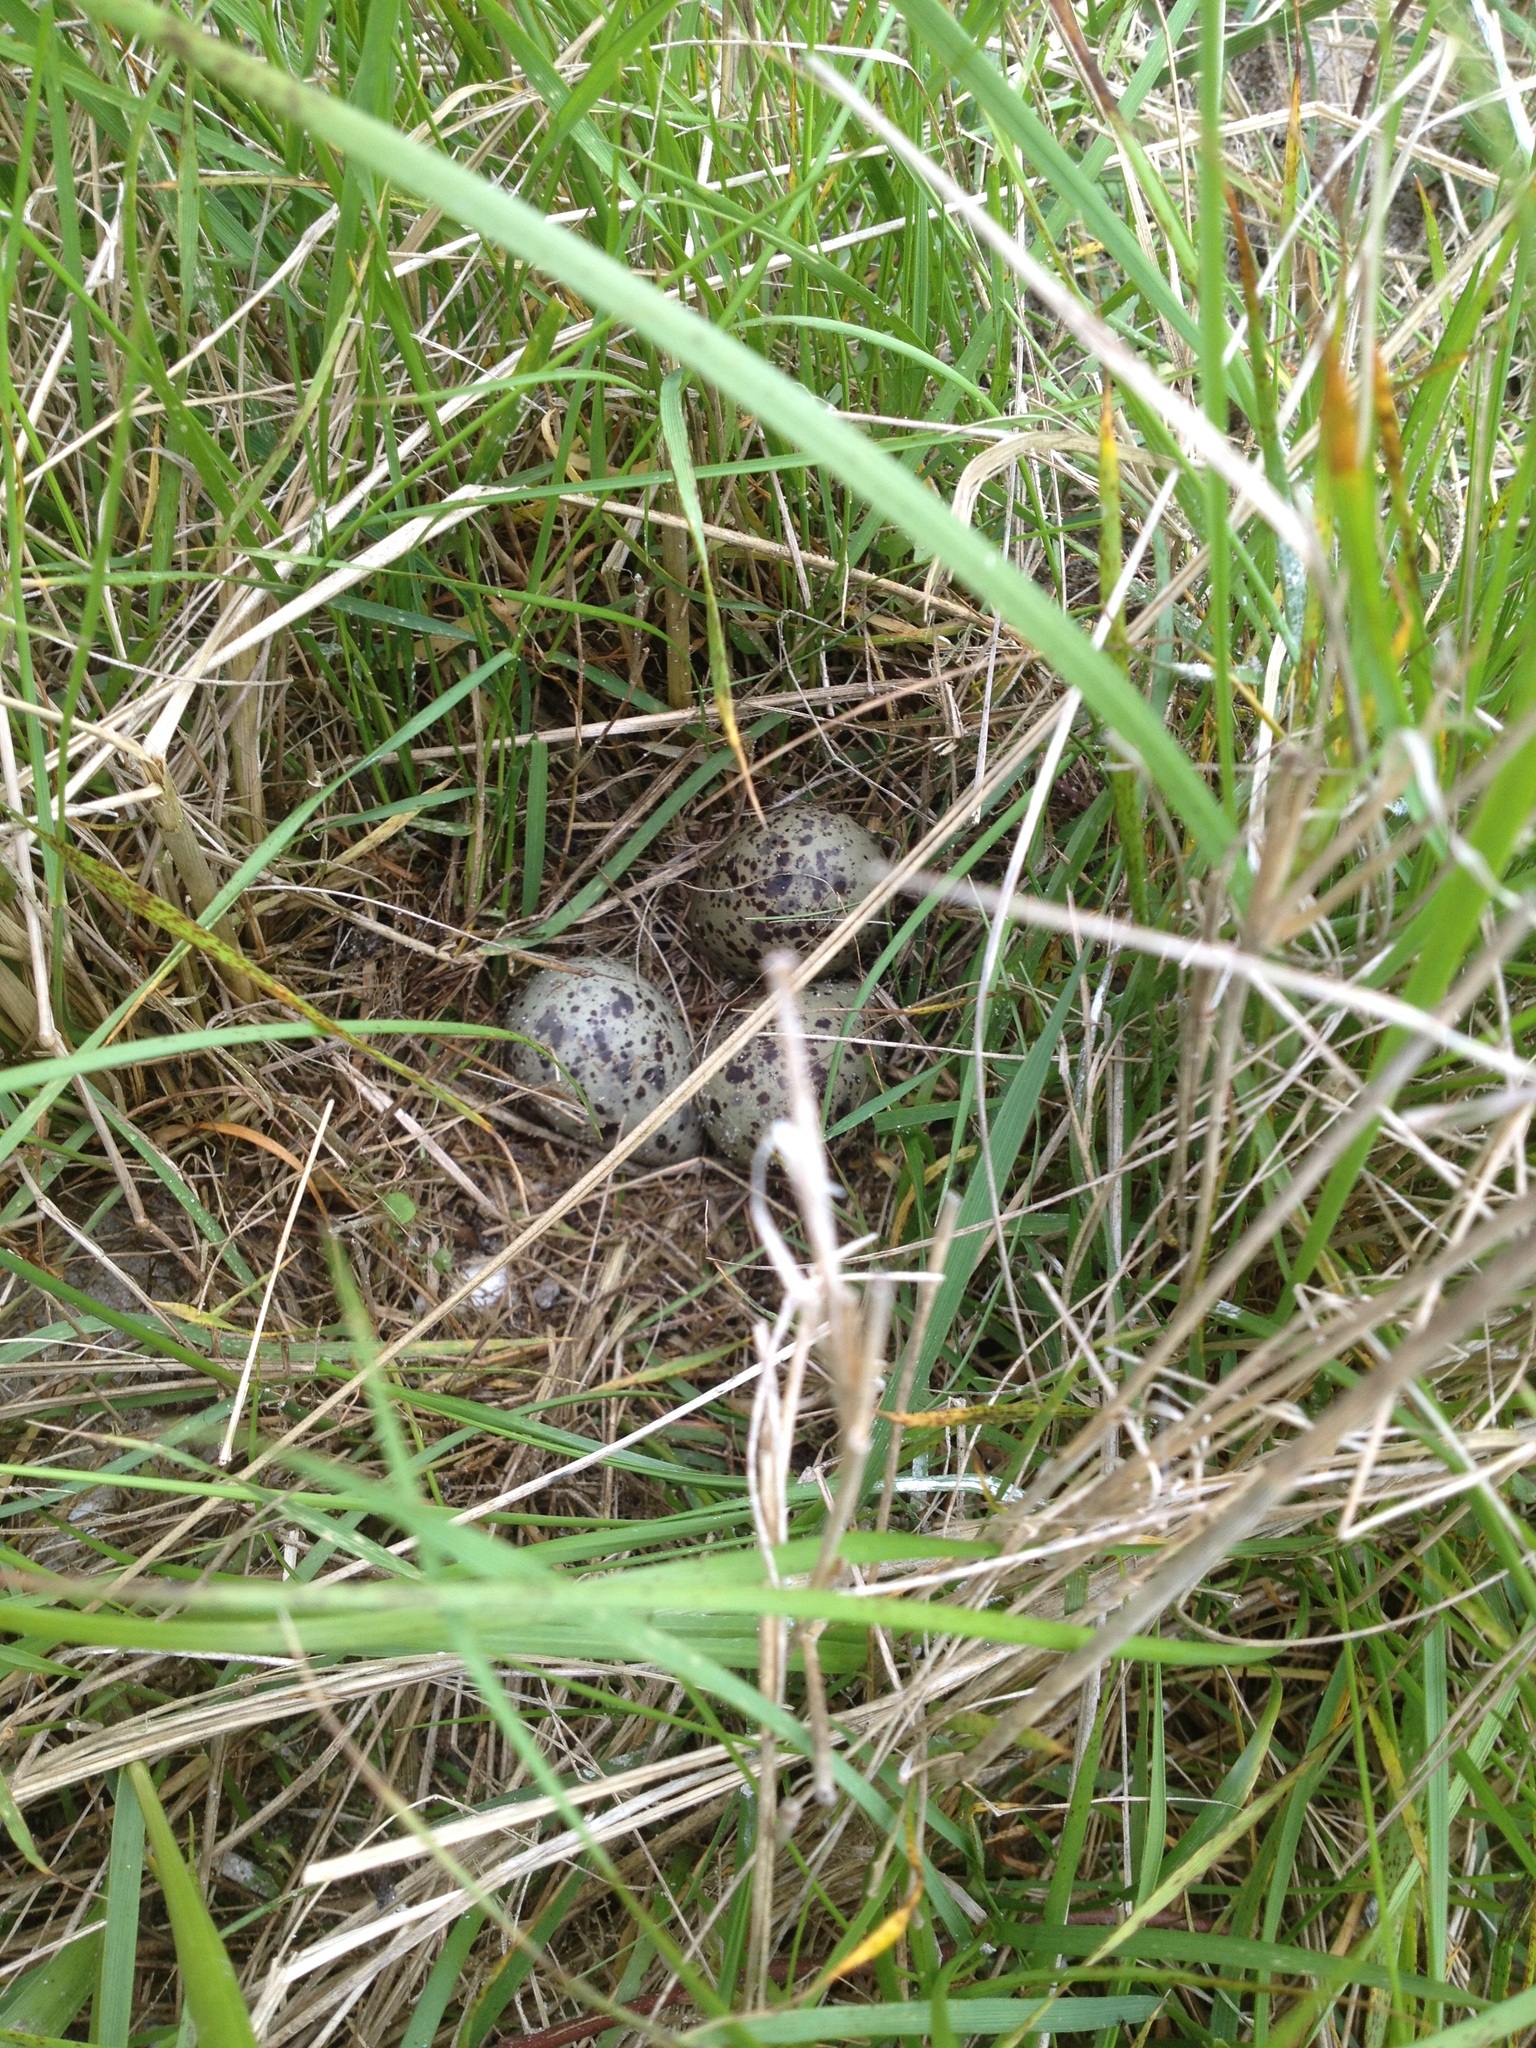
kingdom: Animalia
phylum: Chordata
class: Aves
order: Charadriiformes
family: Scolopacidae
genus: Tringa
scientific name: Tringa semipalmata
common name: Willet
